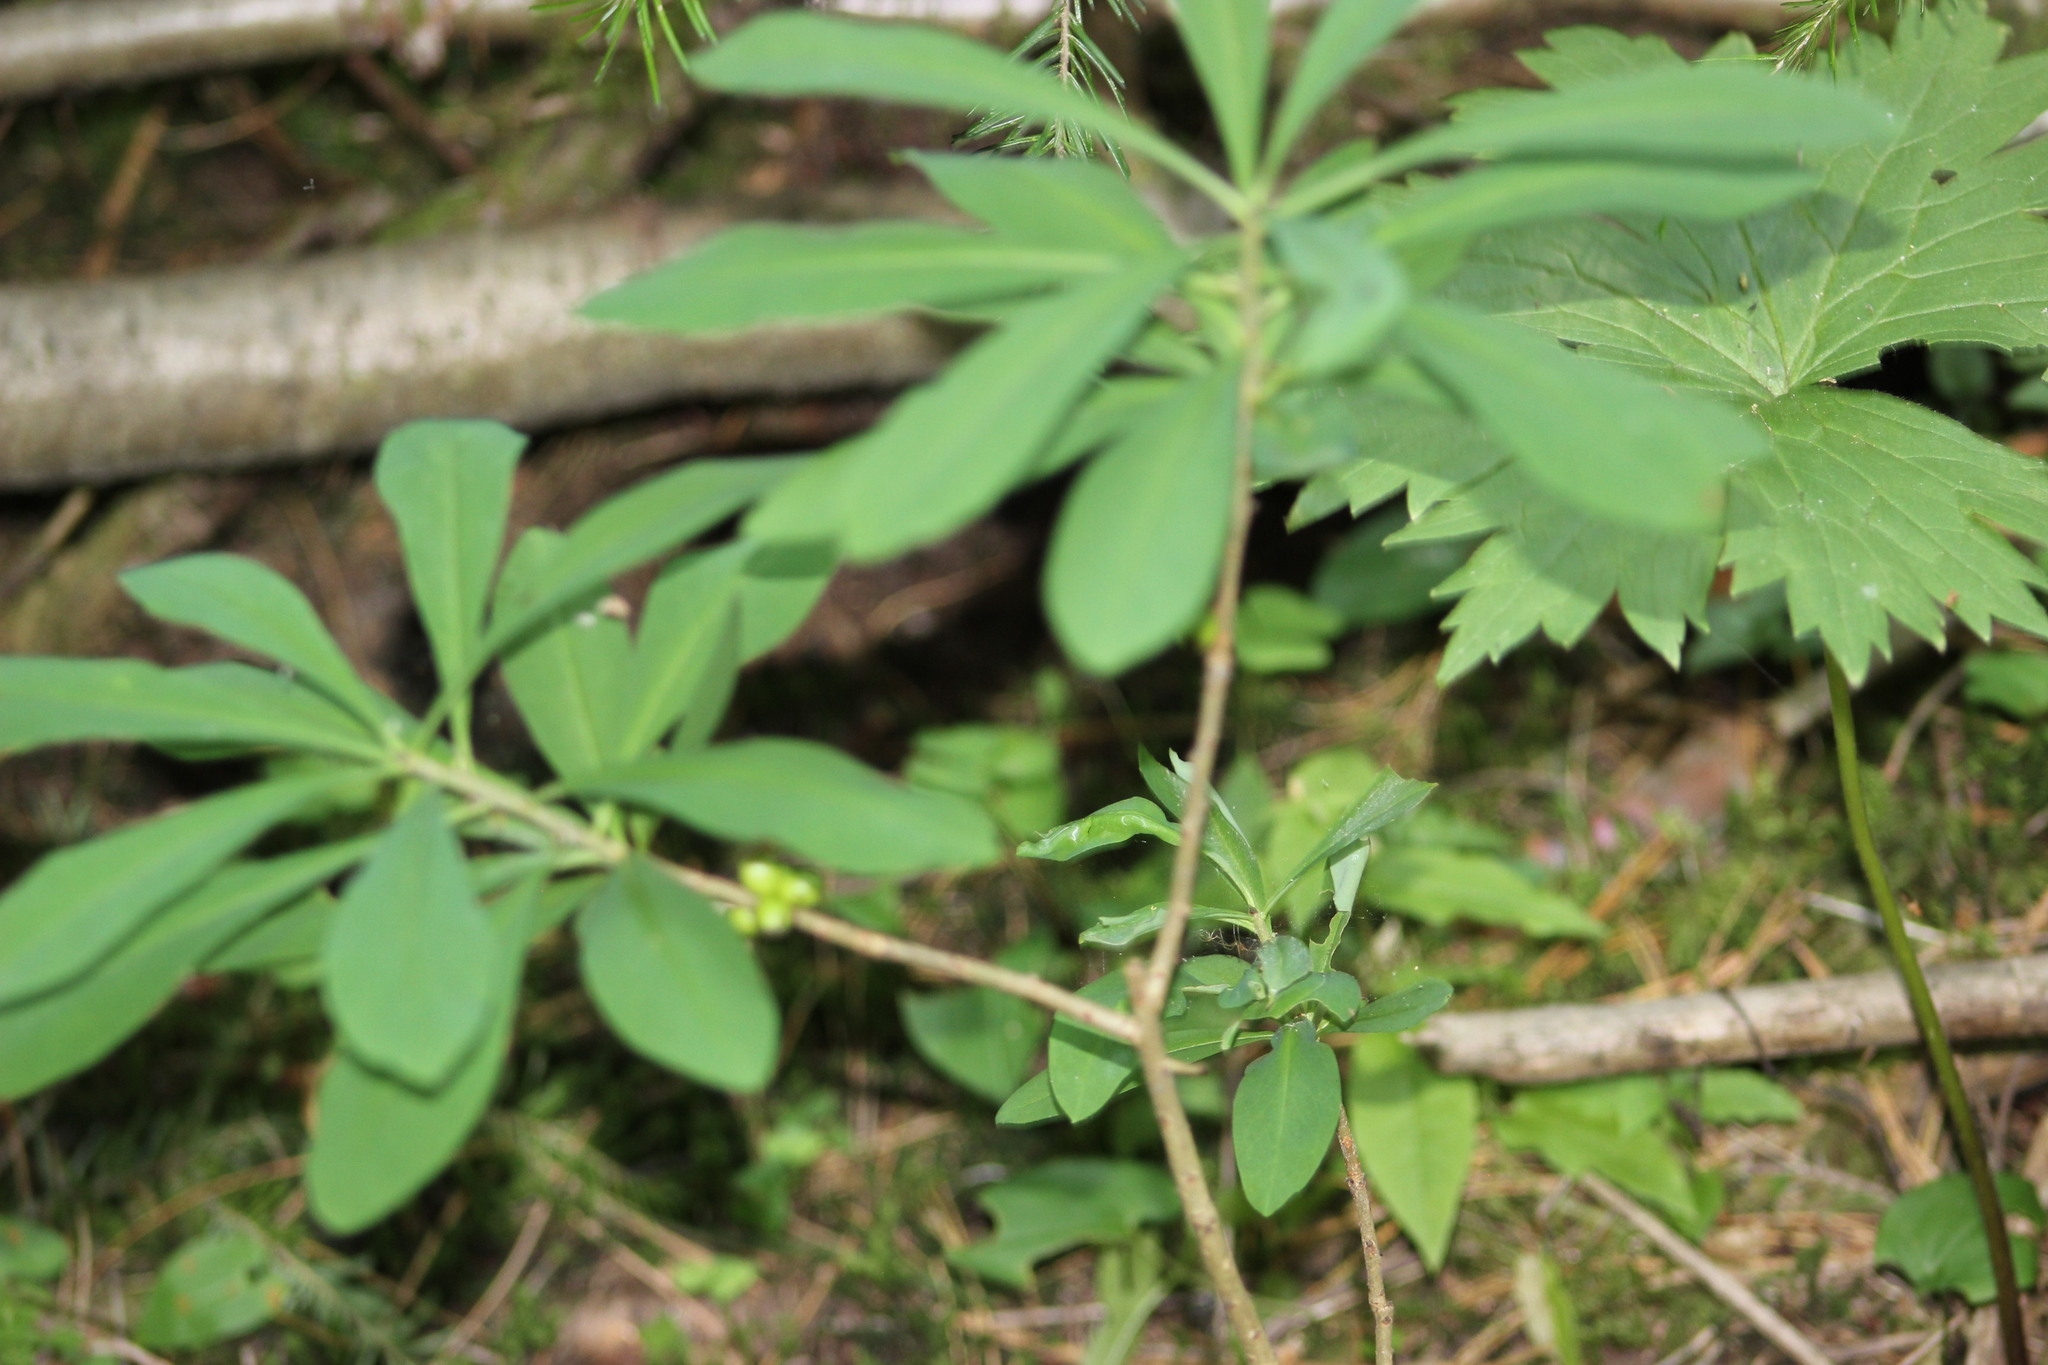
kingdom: Plantae
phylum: Tracheophyta
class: Magnoliopsida
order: Malvales
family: Thymelaeaceae
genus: Daphne
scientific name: Daphne mezereum
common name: Mezereon
